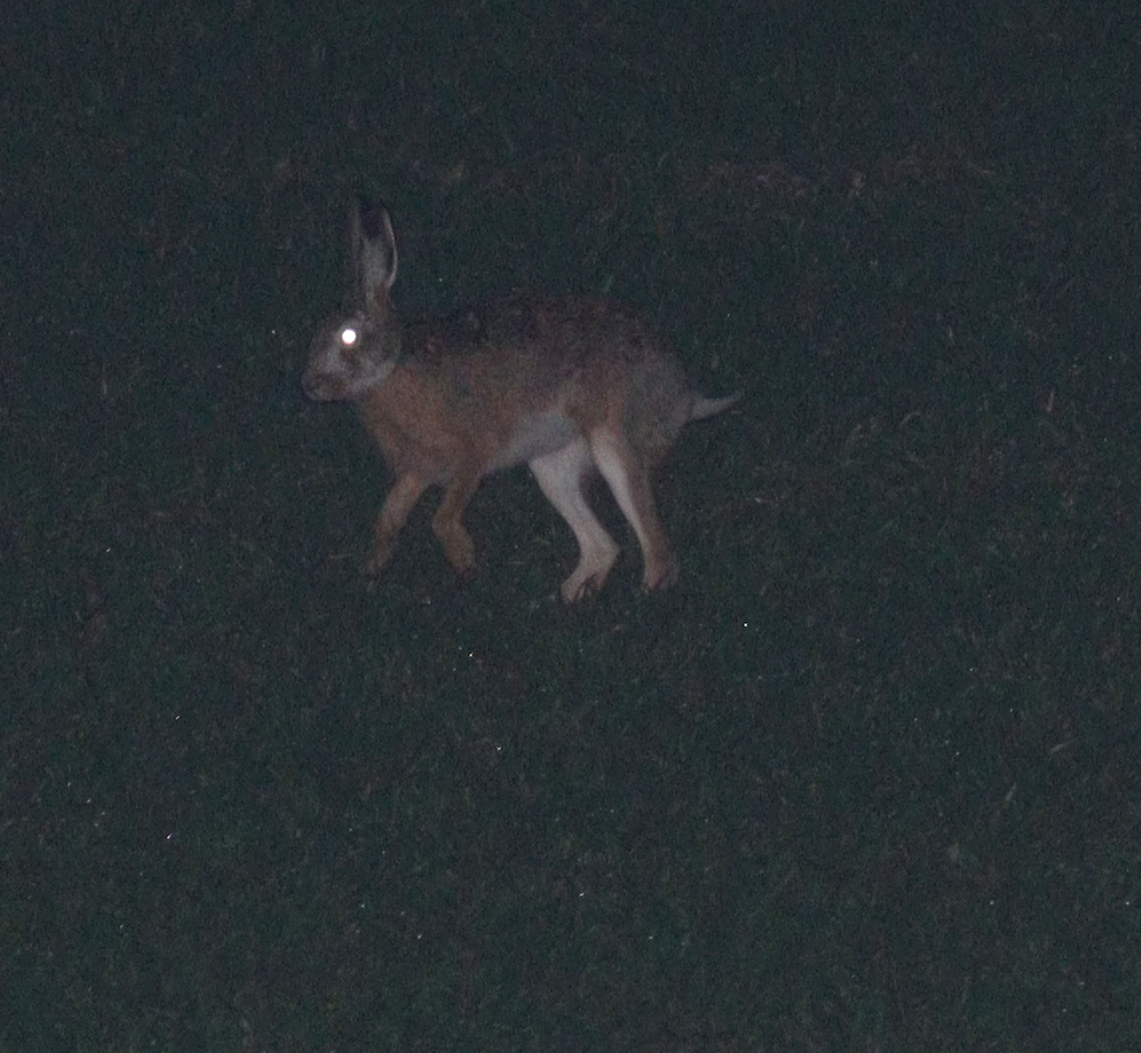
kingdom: Animalia
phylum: Chordata
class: Mammalia
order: Lagomorpha
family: Leporidae
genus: Lepus
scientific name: Lepus europaeus
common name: European hare
